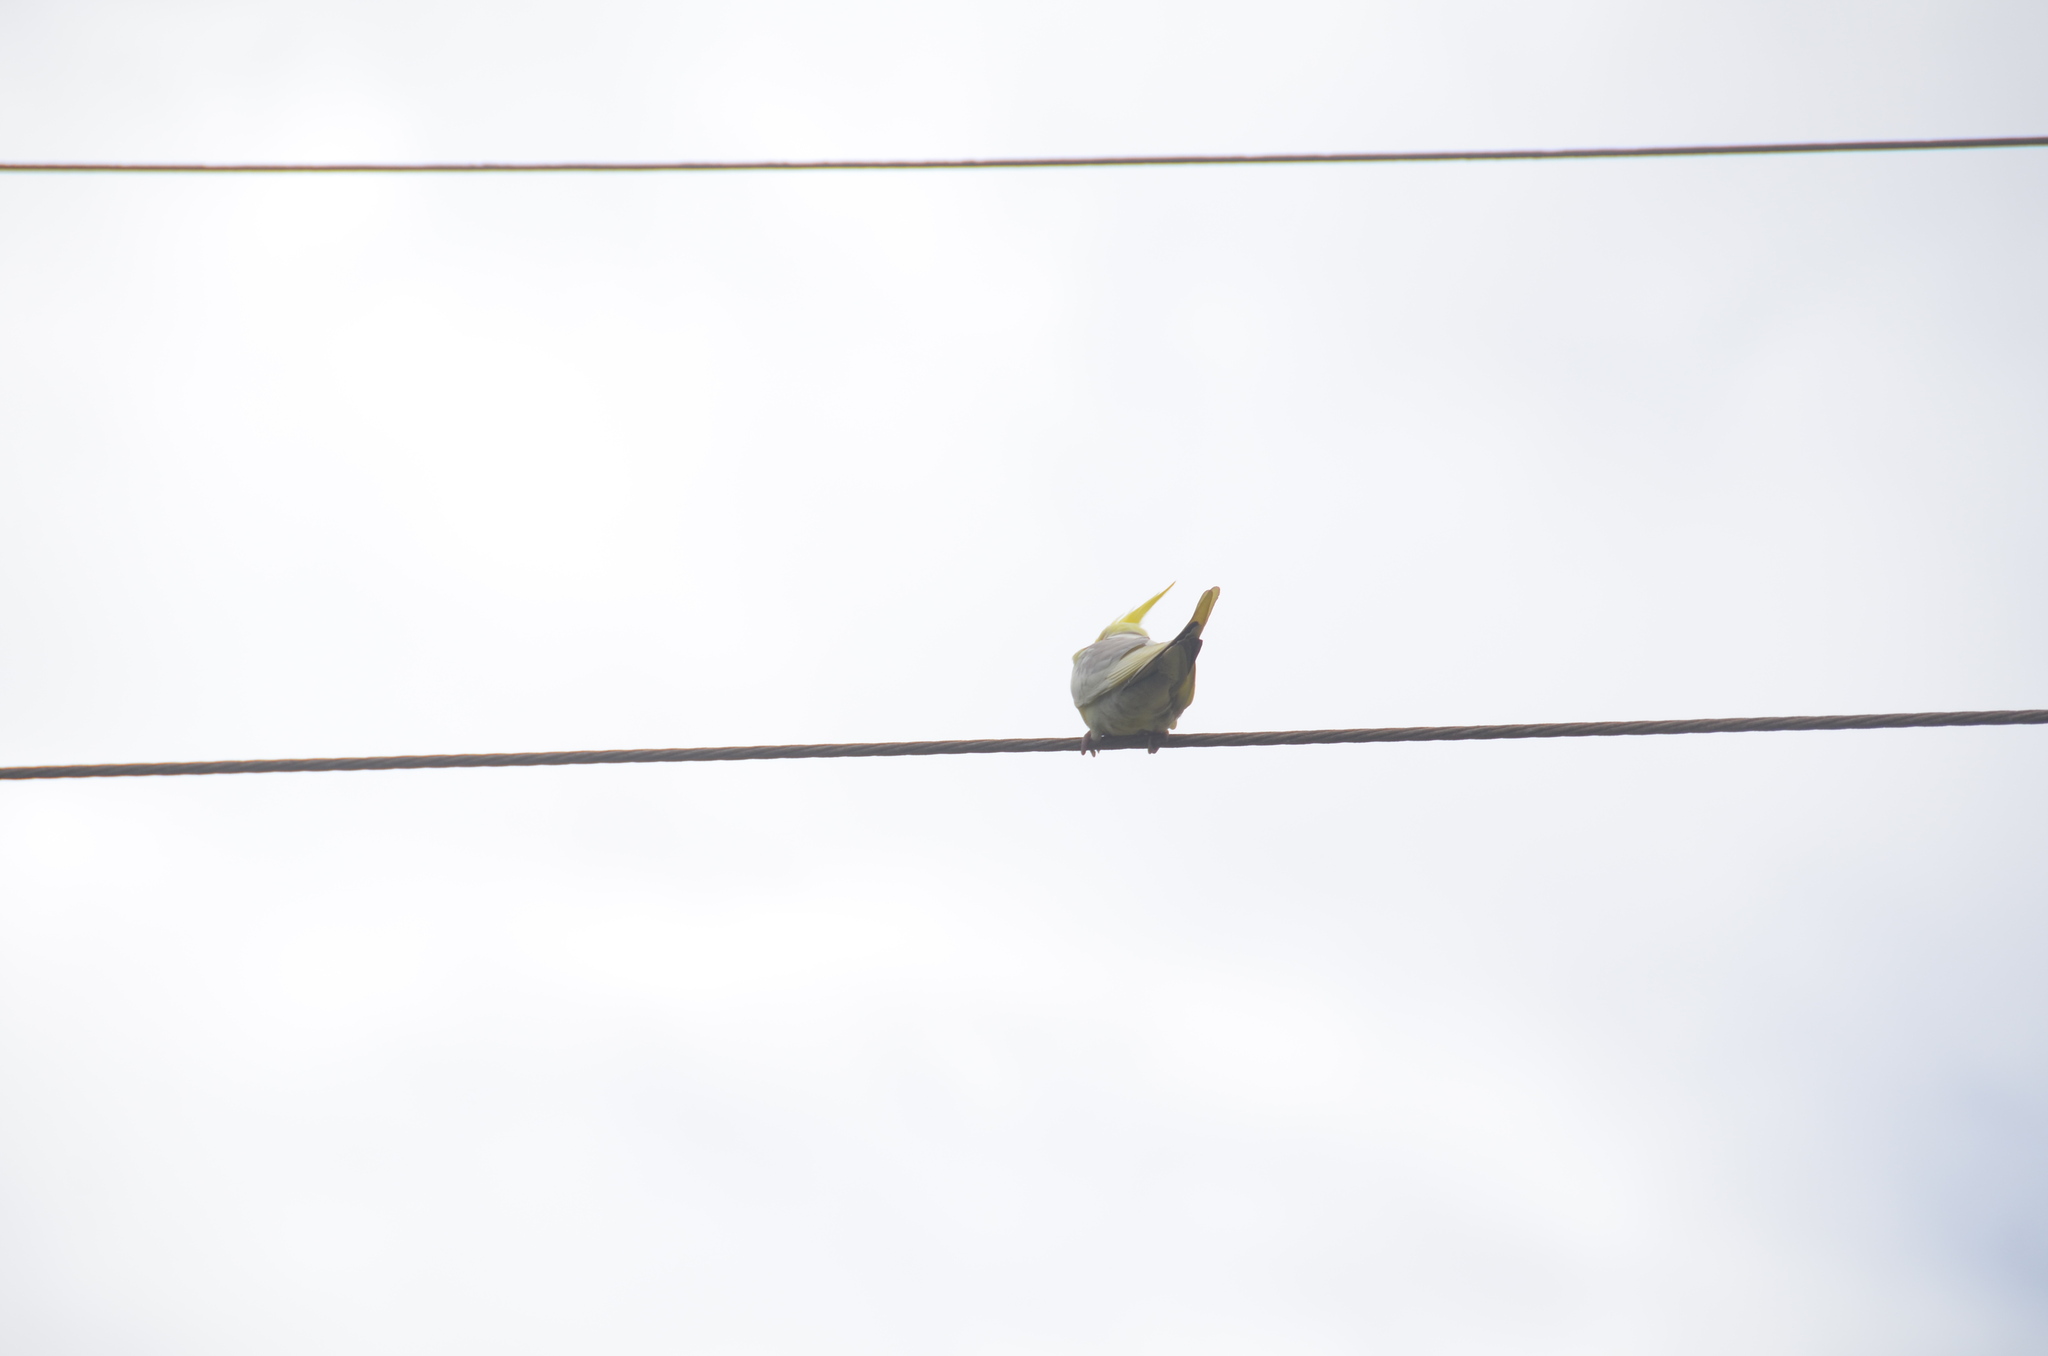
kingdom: Animalia
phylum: Chordata
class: Aves
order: Psittaciformes
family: Psittacidae
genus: Nymphicus
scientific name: Nymphicus hollandicus
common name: Cockatiel
